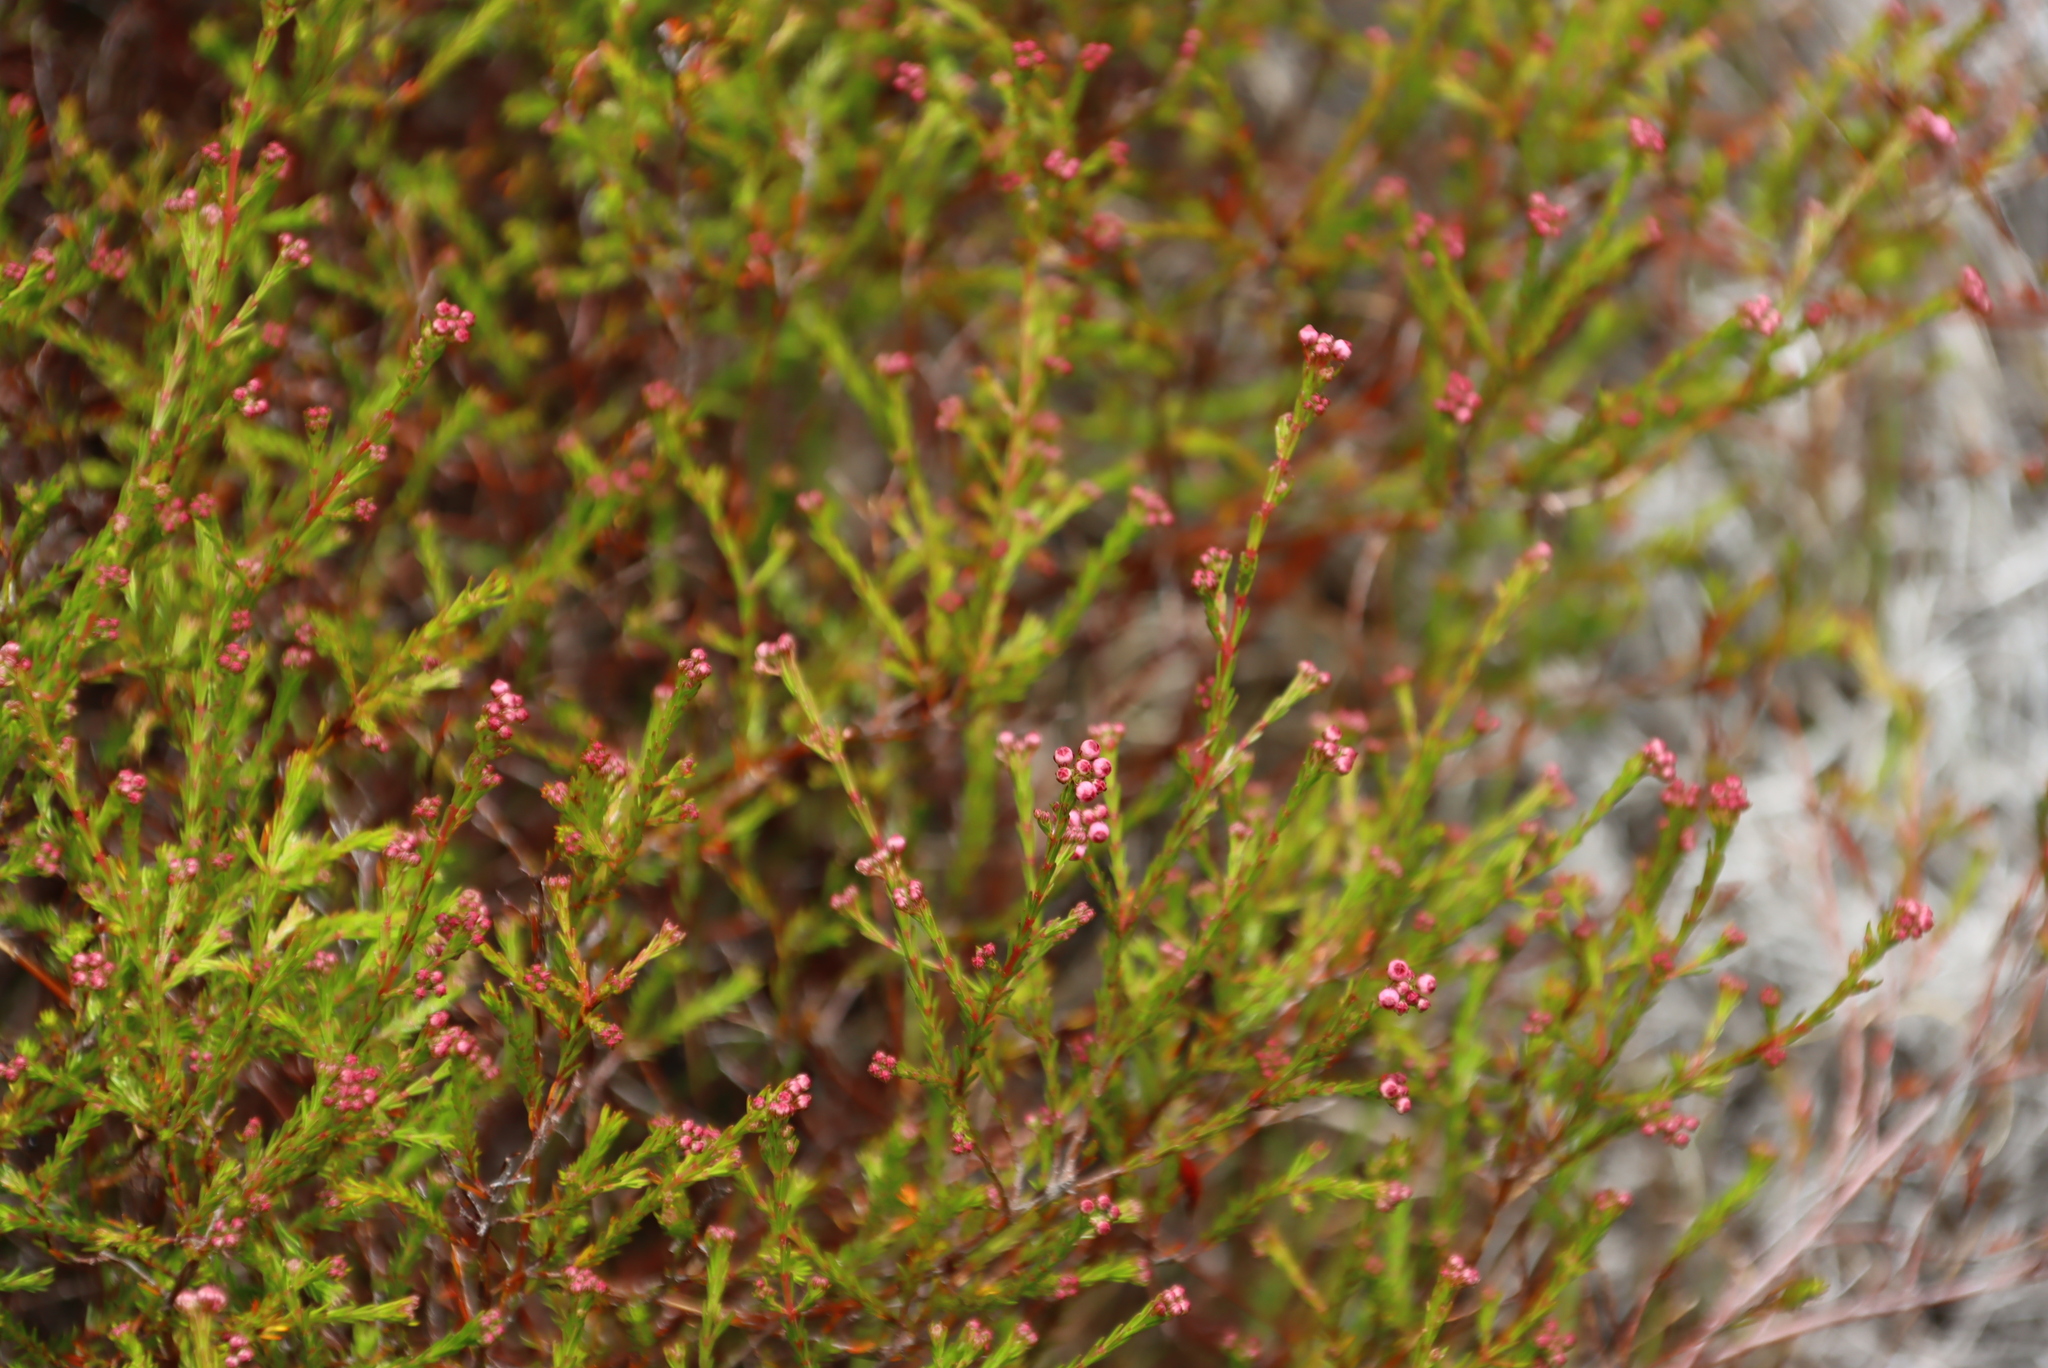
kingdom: Plantae
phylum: Tracheophyta
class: Magnoliopsida
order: Ericales
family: Ericaceae
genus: Erica
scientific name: Erica multumbellifera
